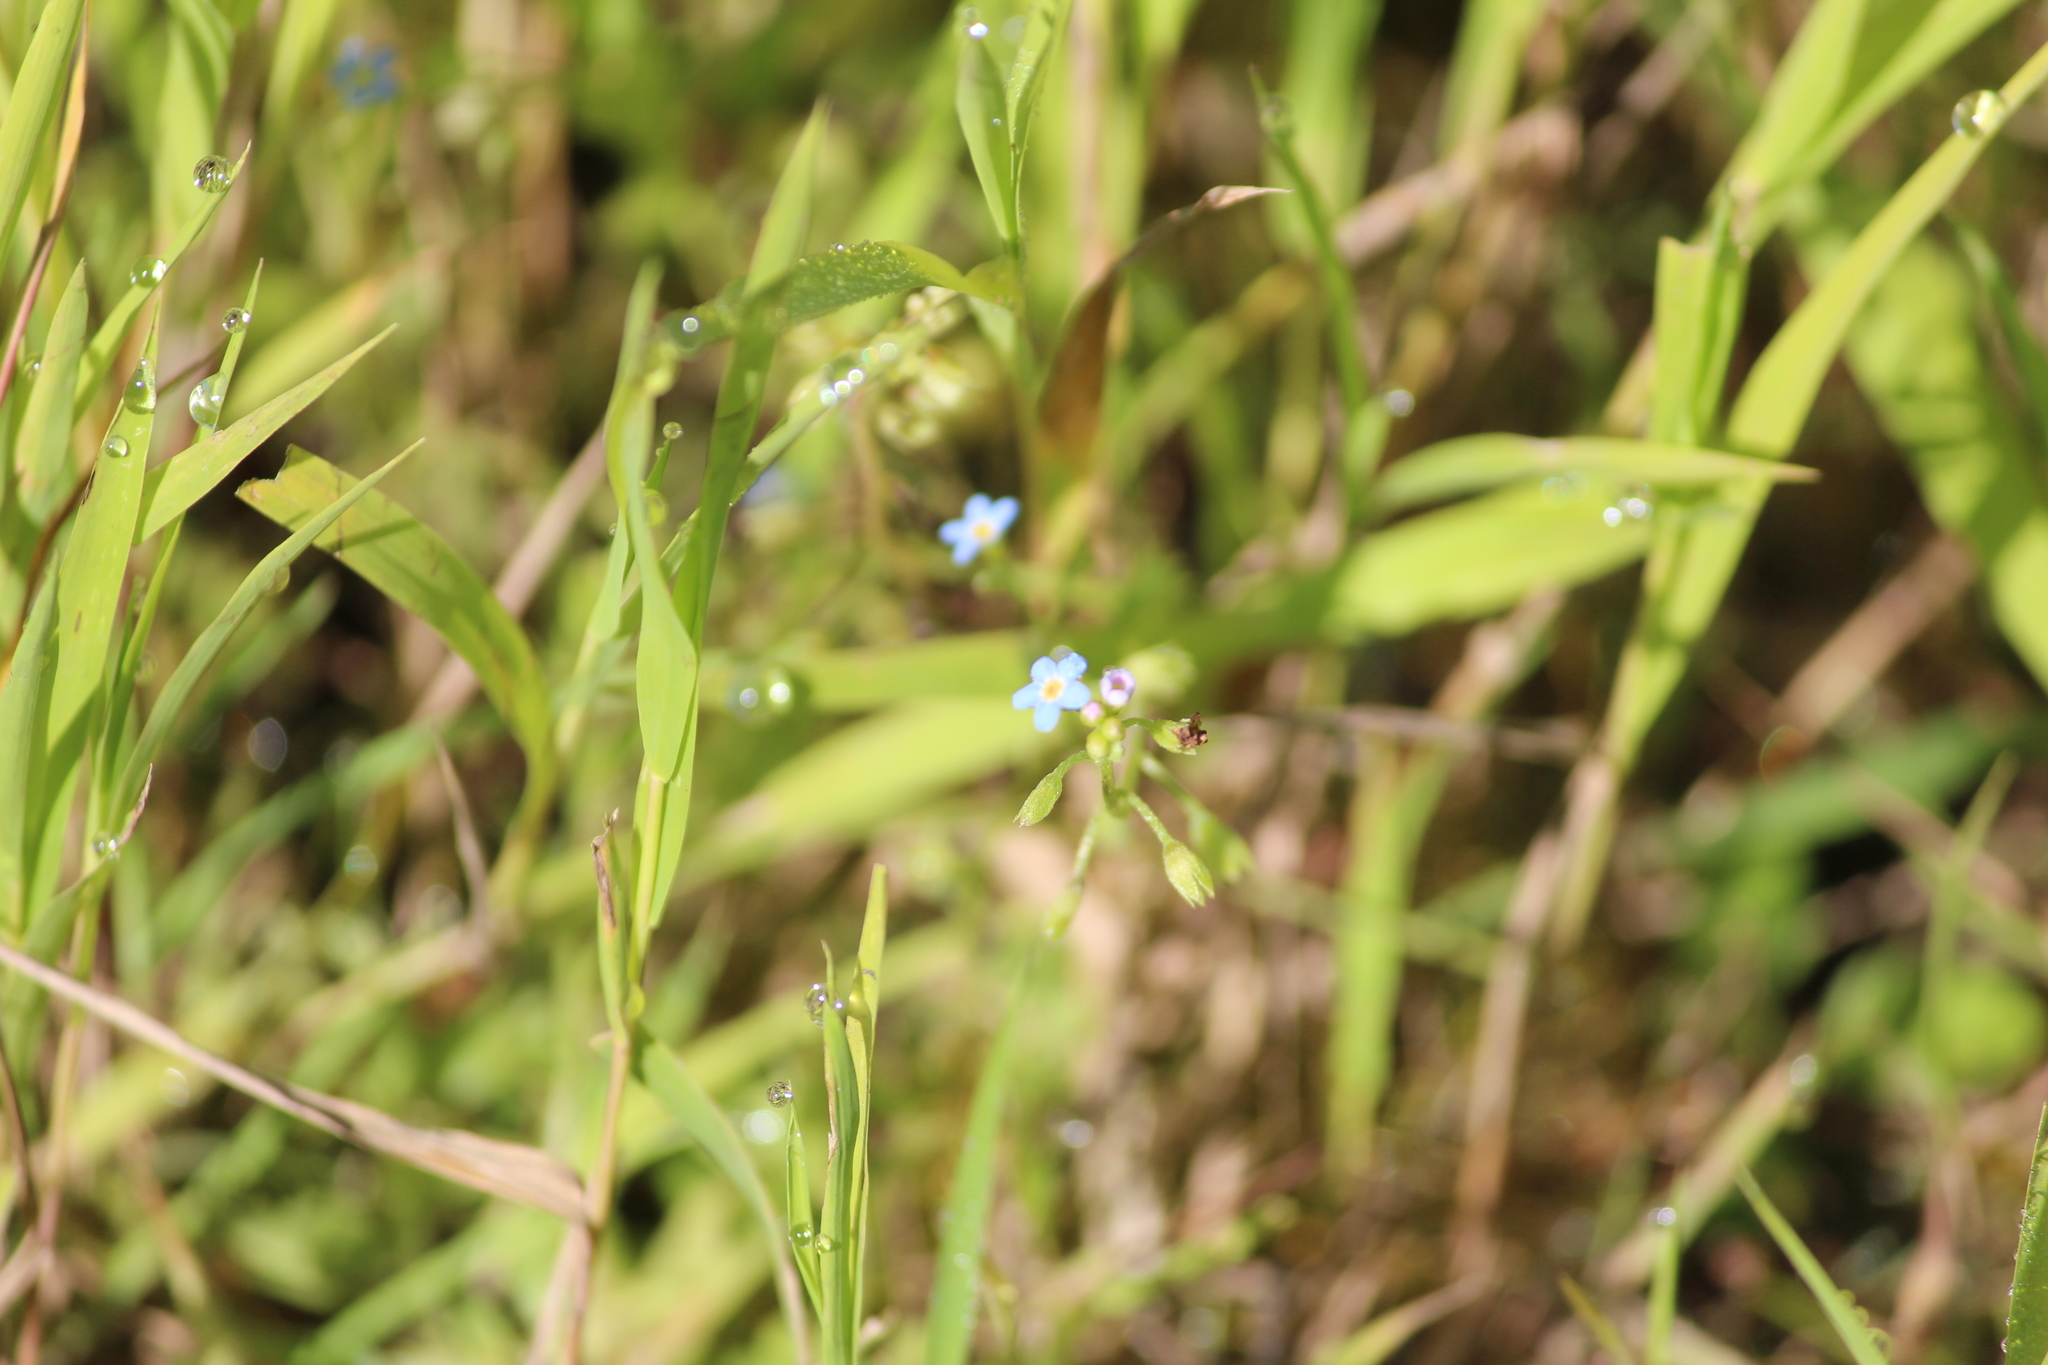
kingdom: Plantae
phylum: Tracheophyta
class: Magnoliopsida
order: Boraginales
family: Boraginaceae
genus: Myosotis
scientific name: Myosotis laxa
